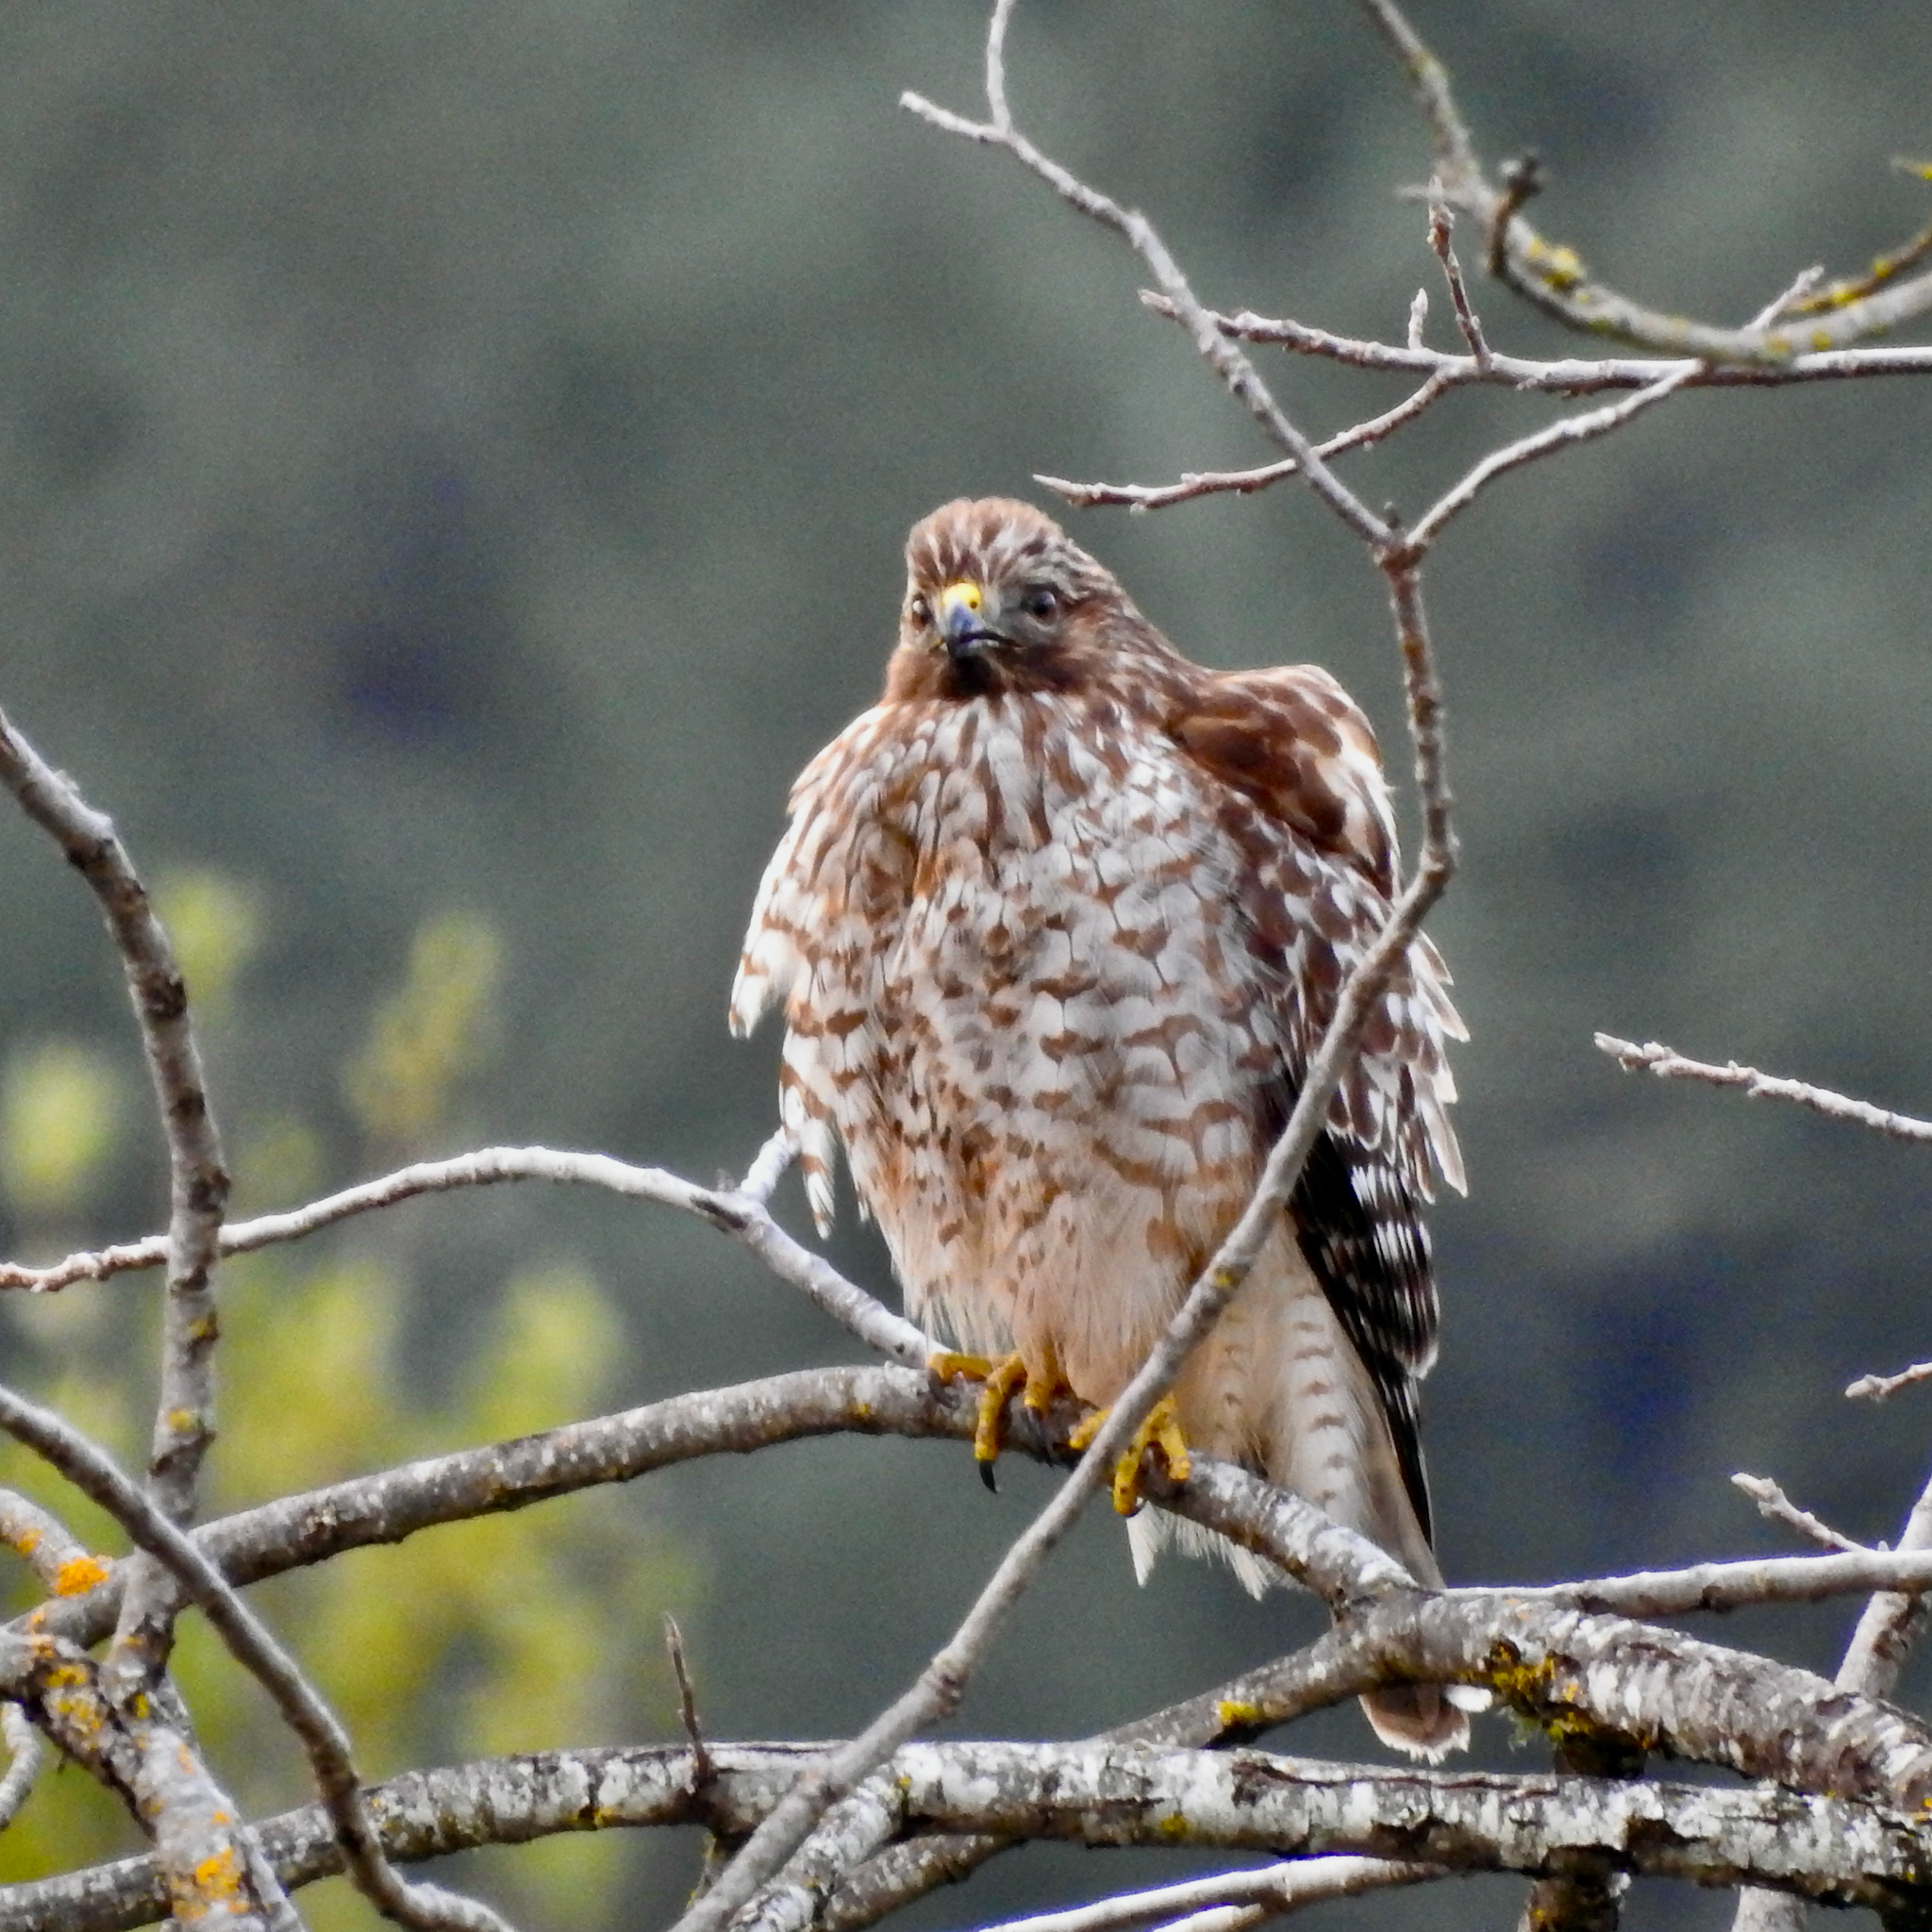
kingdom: Animalia
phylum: Chordata
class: Aves
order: Accipitriformes
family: Accipitridae
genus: Buteo
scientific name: Buteo lineatus
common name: Red-shouldered hawk
